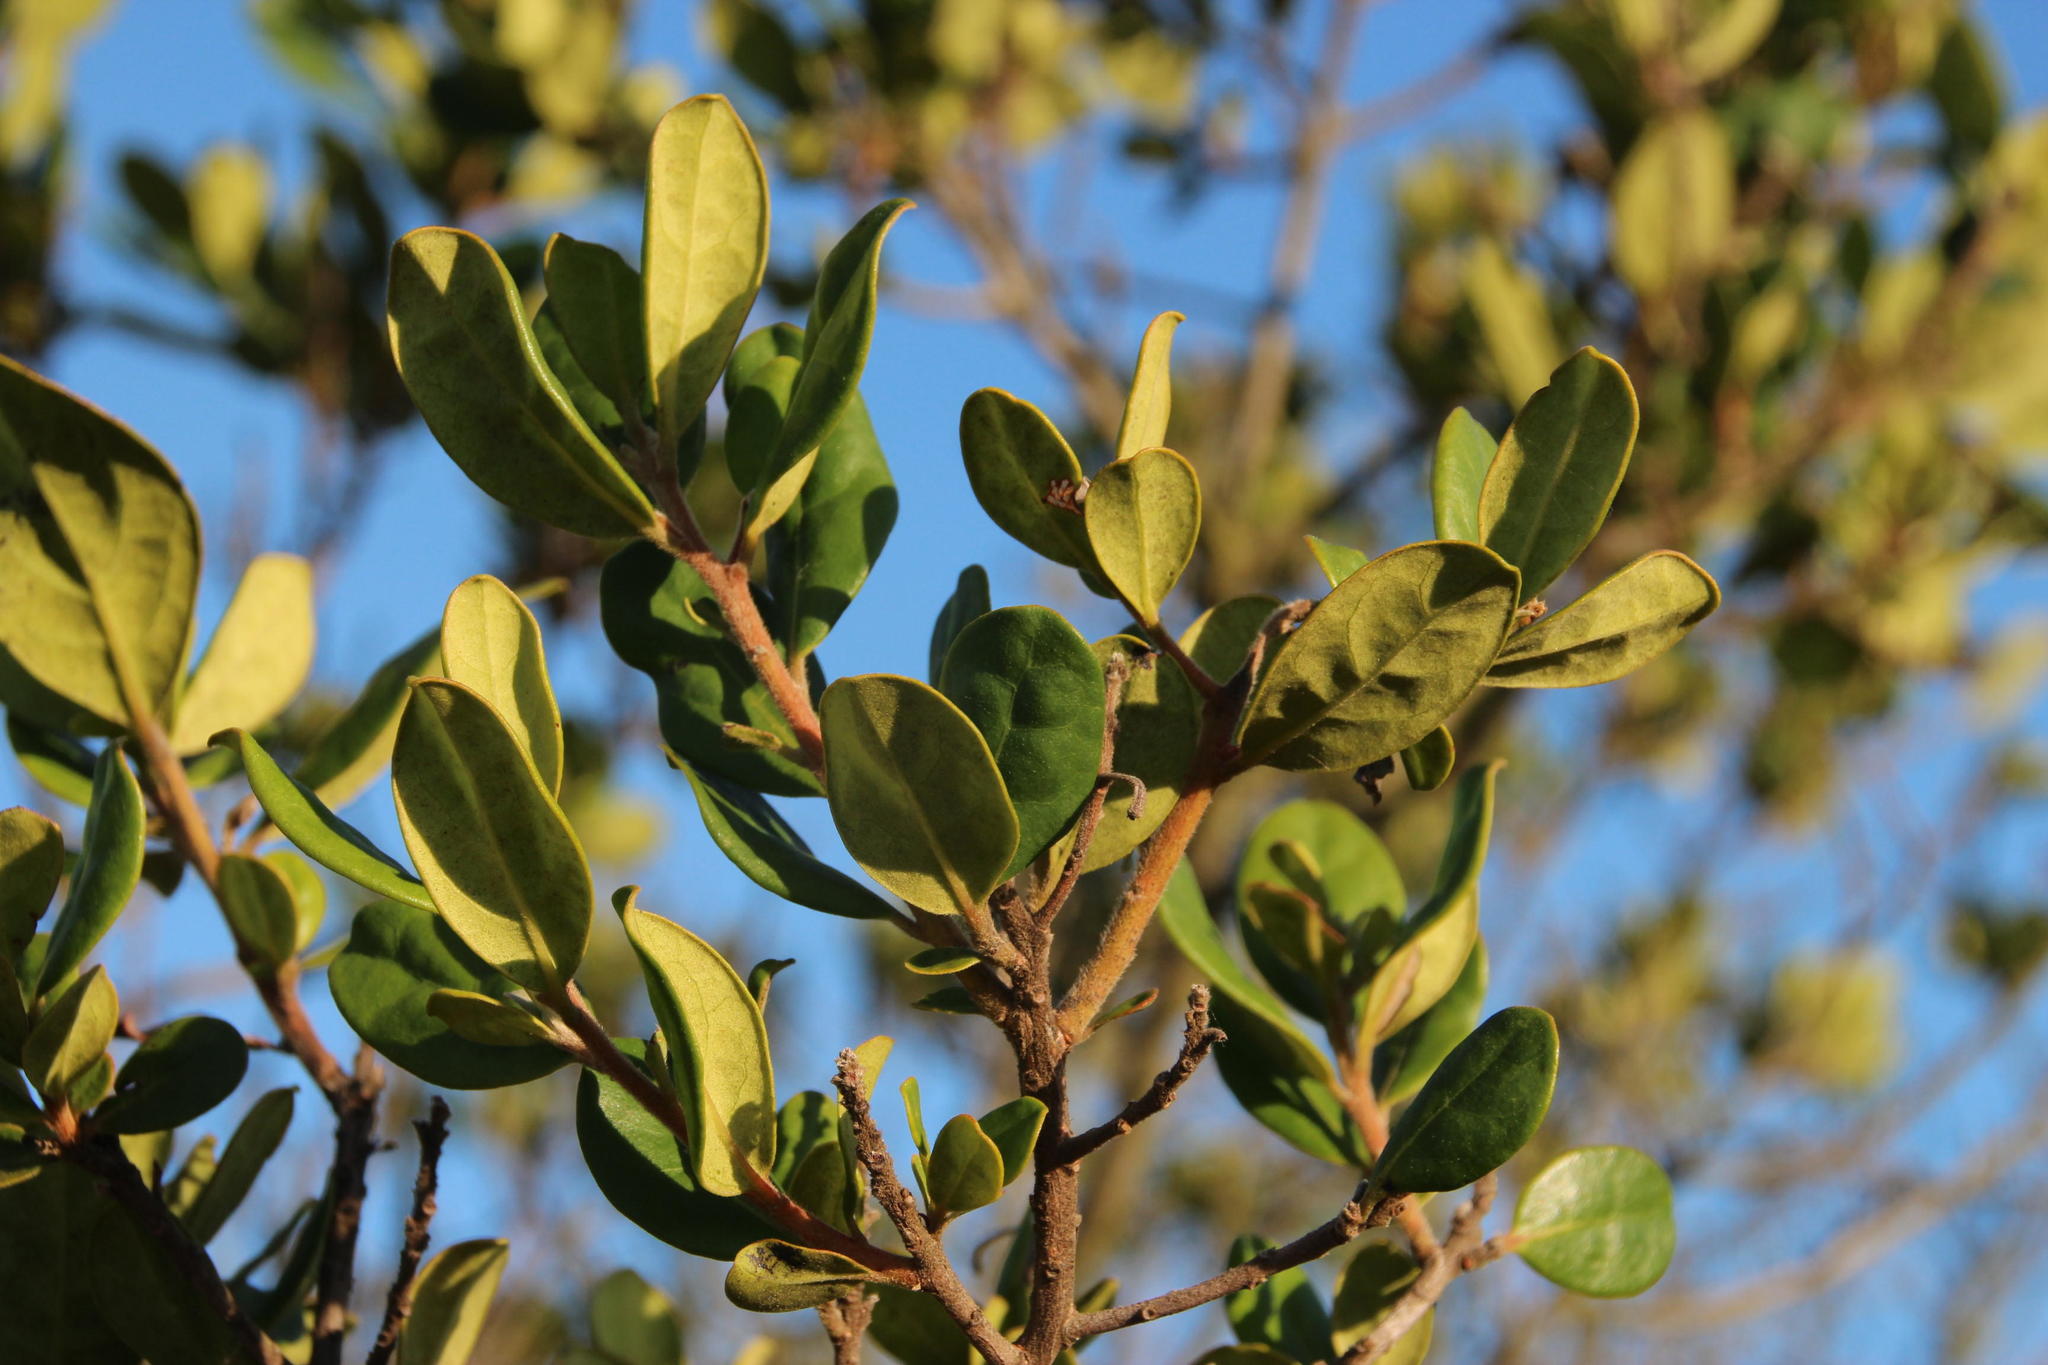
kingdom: Plantae
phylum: Tracheophyta
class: Magnoliopsida
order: Ericales
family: Ebenaceae
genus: Diospyros
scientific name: Diospyros dichrophylla
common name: Common star-apple
